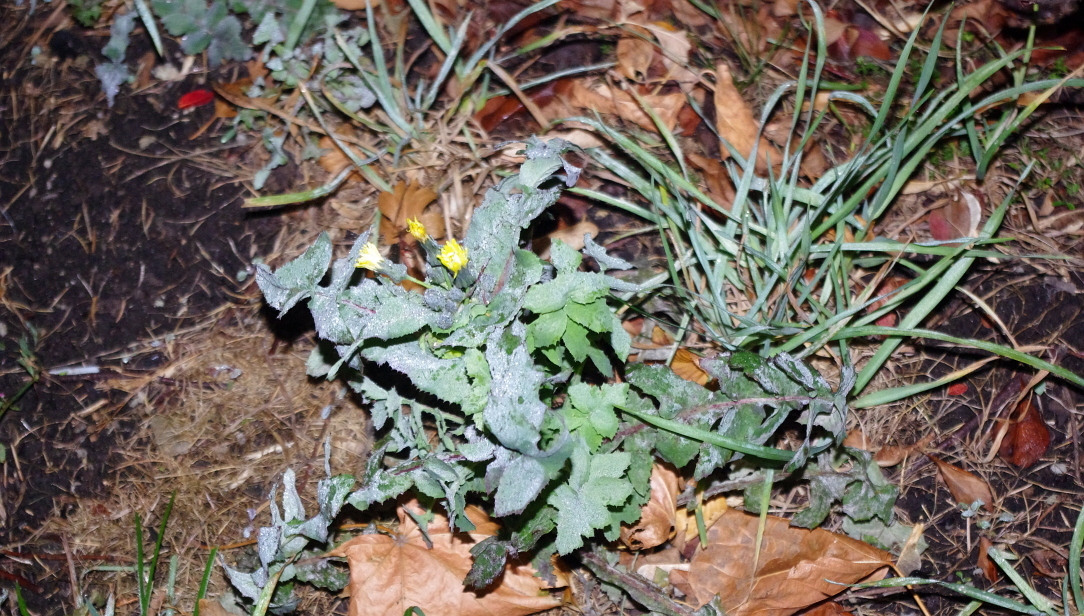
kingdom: Plantae
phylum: Tracheophyta
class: Magnoliopsida
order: Asterales
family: Asteraceae
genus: Sonchus
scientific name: Sonchus oleraceus
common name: Common sowthistle
